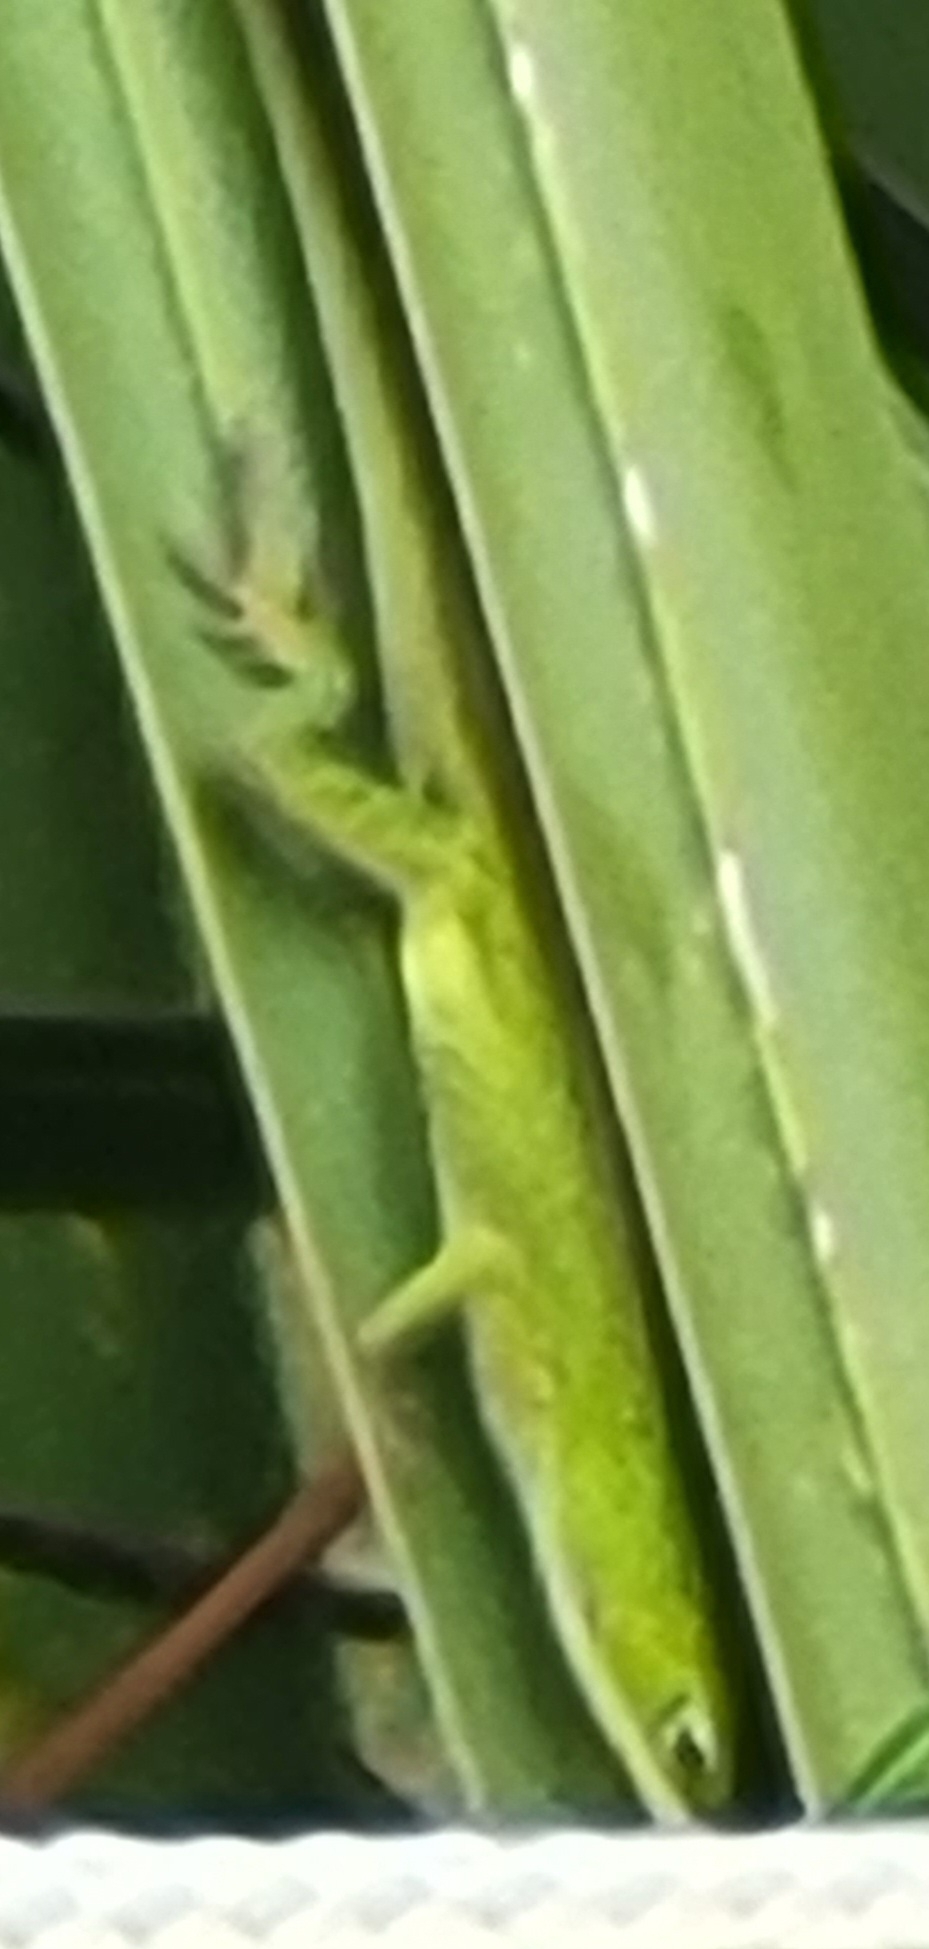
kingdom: Animalia
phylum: Chordata
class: Squamata
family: Dactyloidae
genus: Anolis
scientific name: Anolis carolinensis
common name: Green anole
